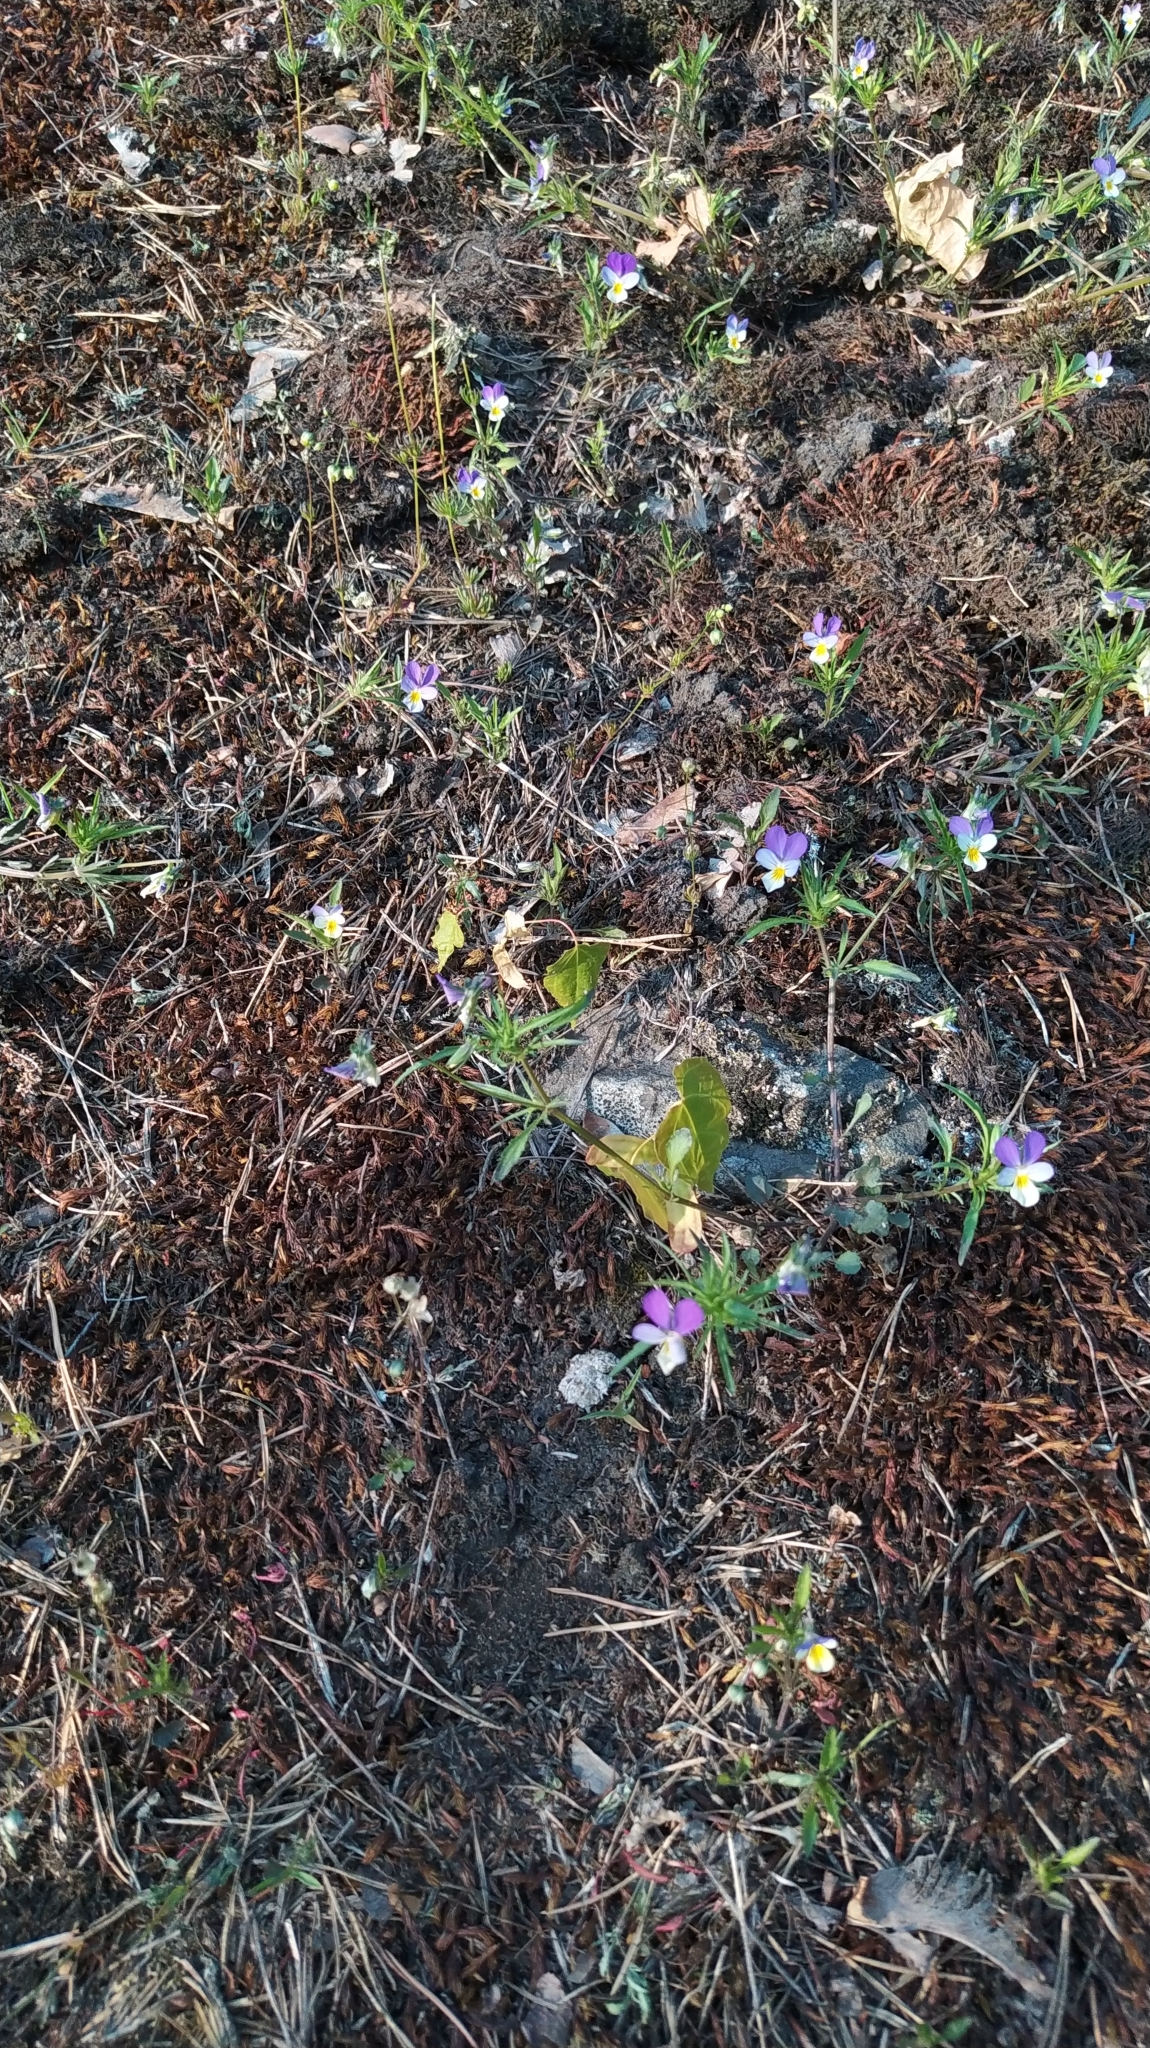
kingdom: Plantae
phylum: Tracheophyta
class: Magnoliopsida
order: Malpighiales
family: Violaceae
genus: Viola
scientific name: Viola tricolor
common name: Pansy
